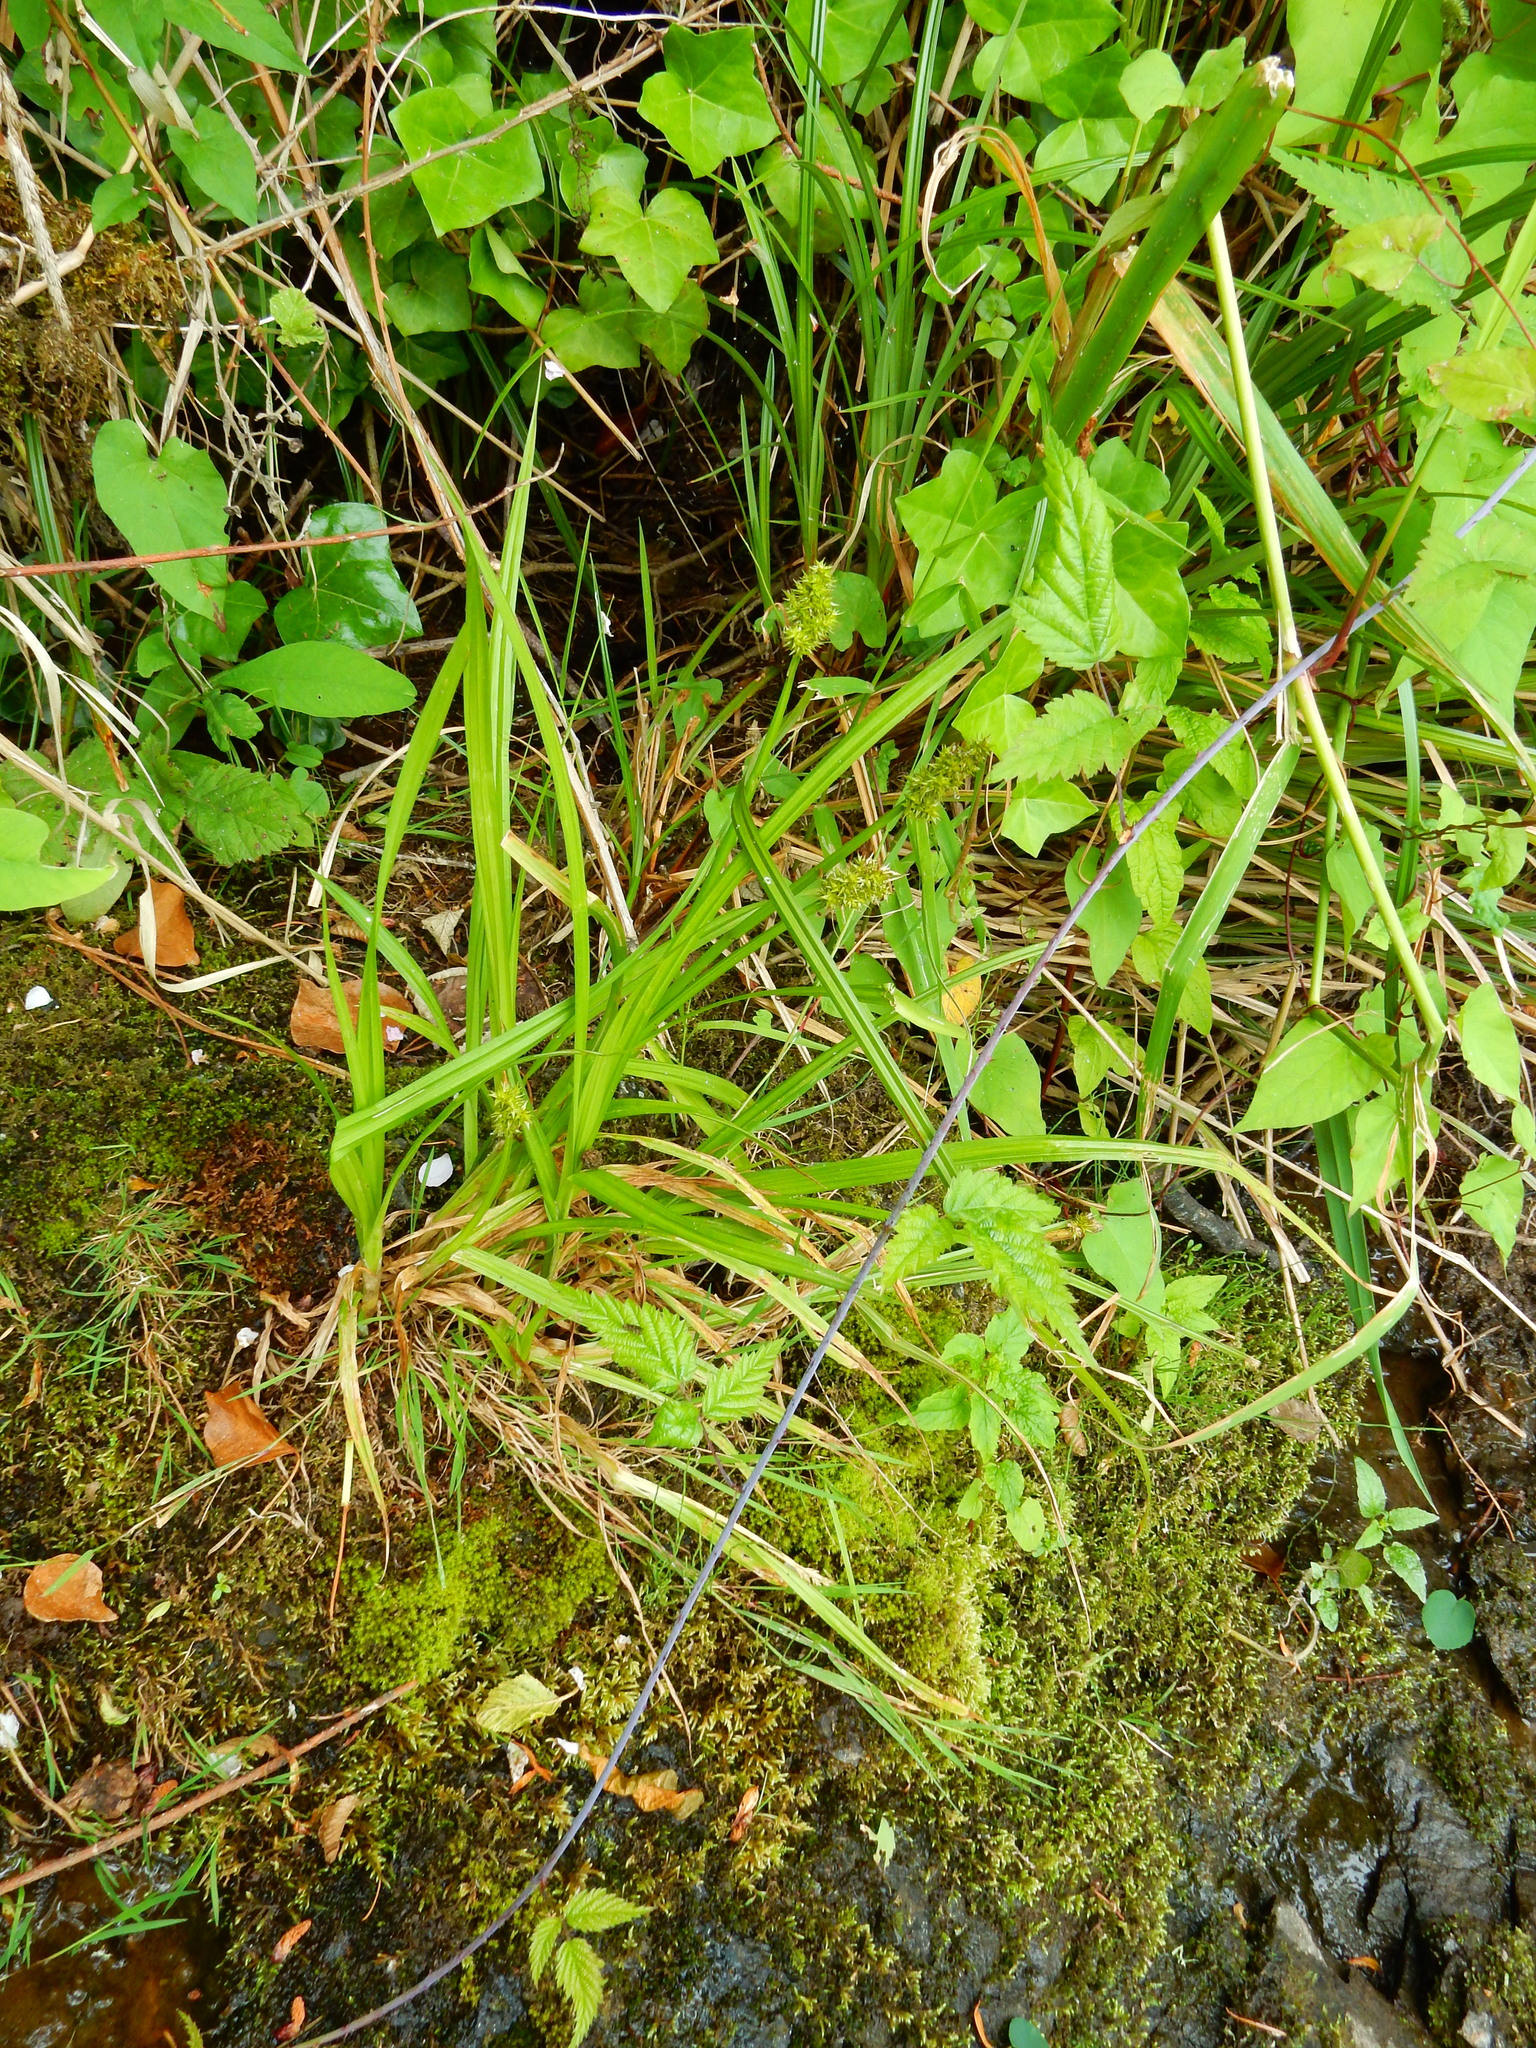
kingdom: Plantae
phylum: Tracheophyta
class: Liliopsida
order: Poales
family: Cyperaceae
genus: Carex
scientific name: Carex stipata
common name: Awl-fruited sedge
